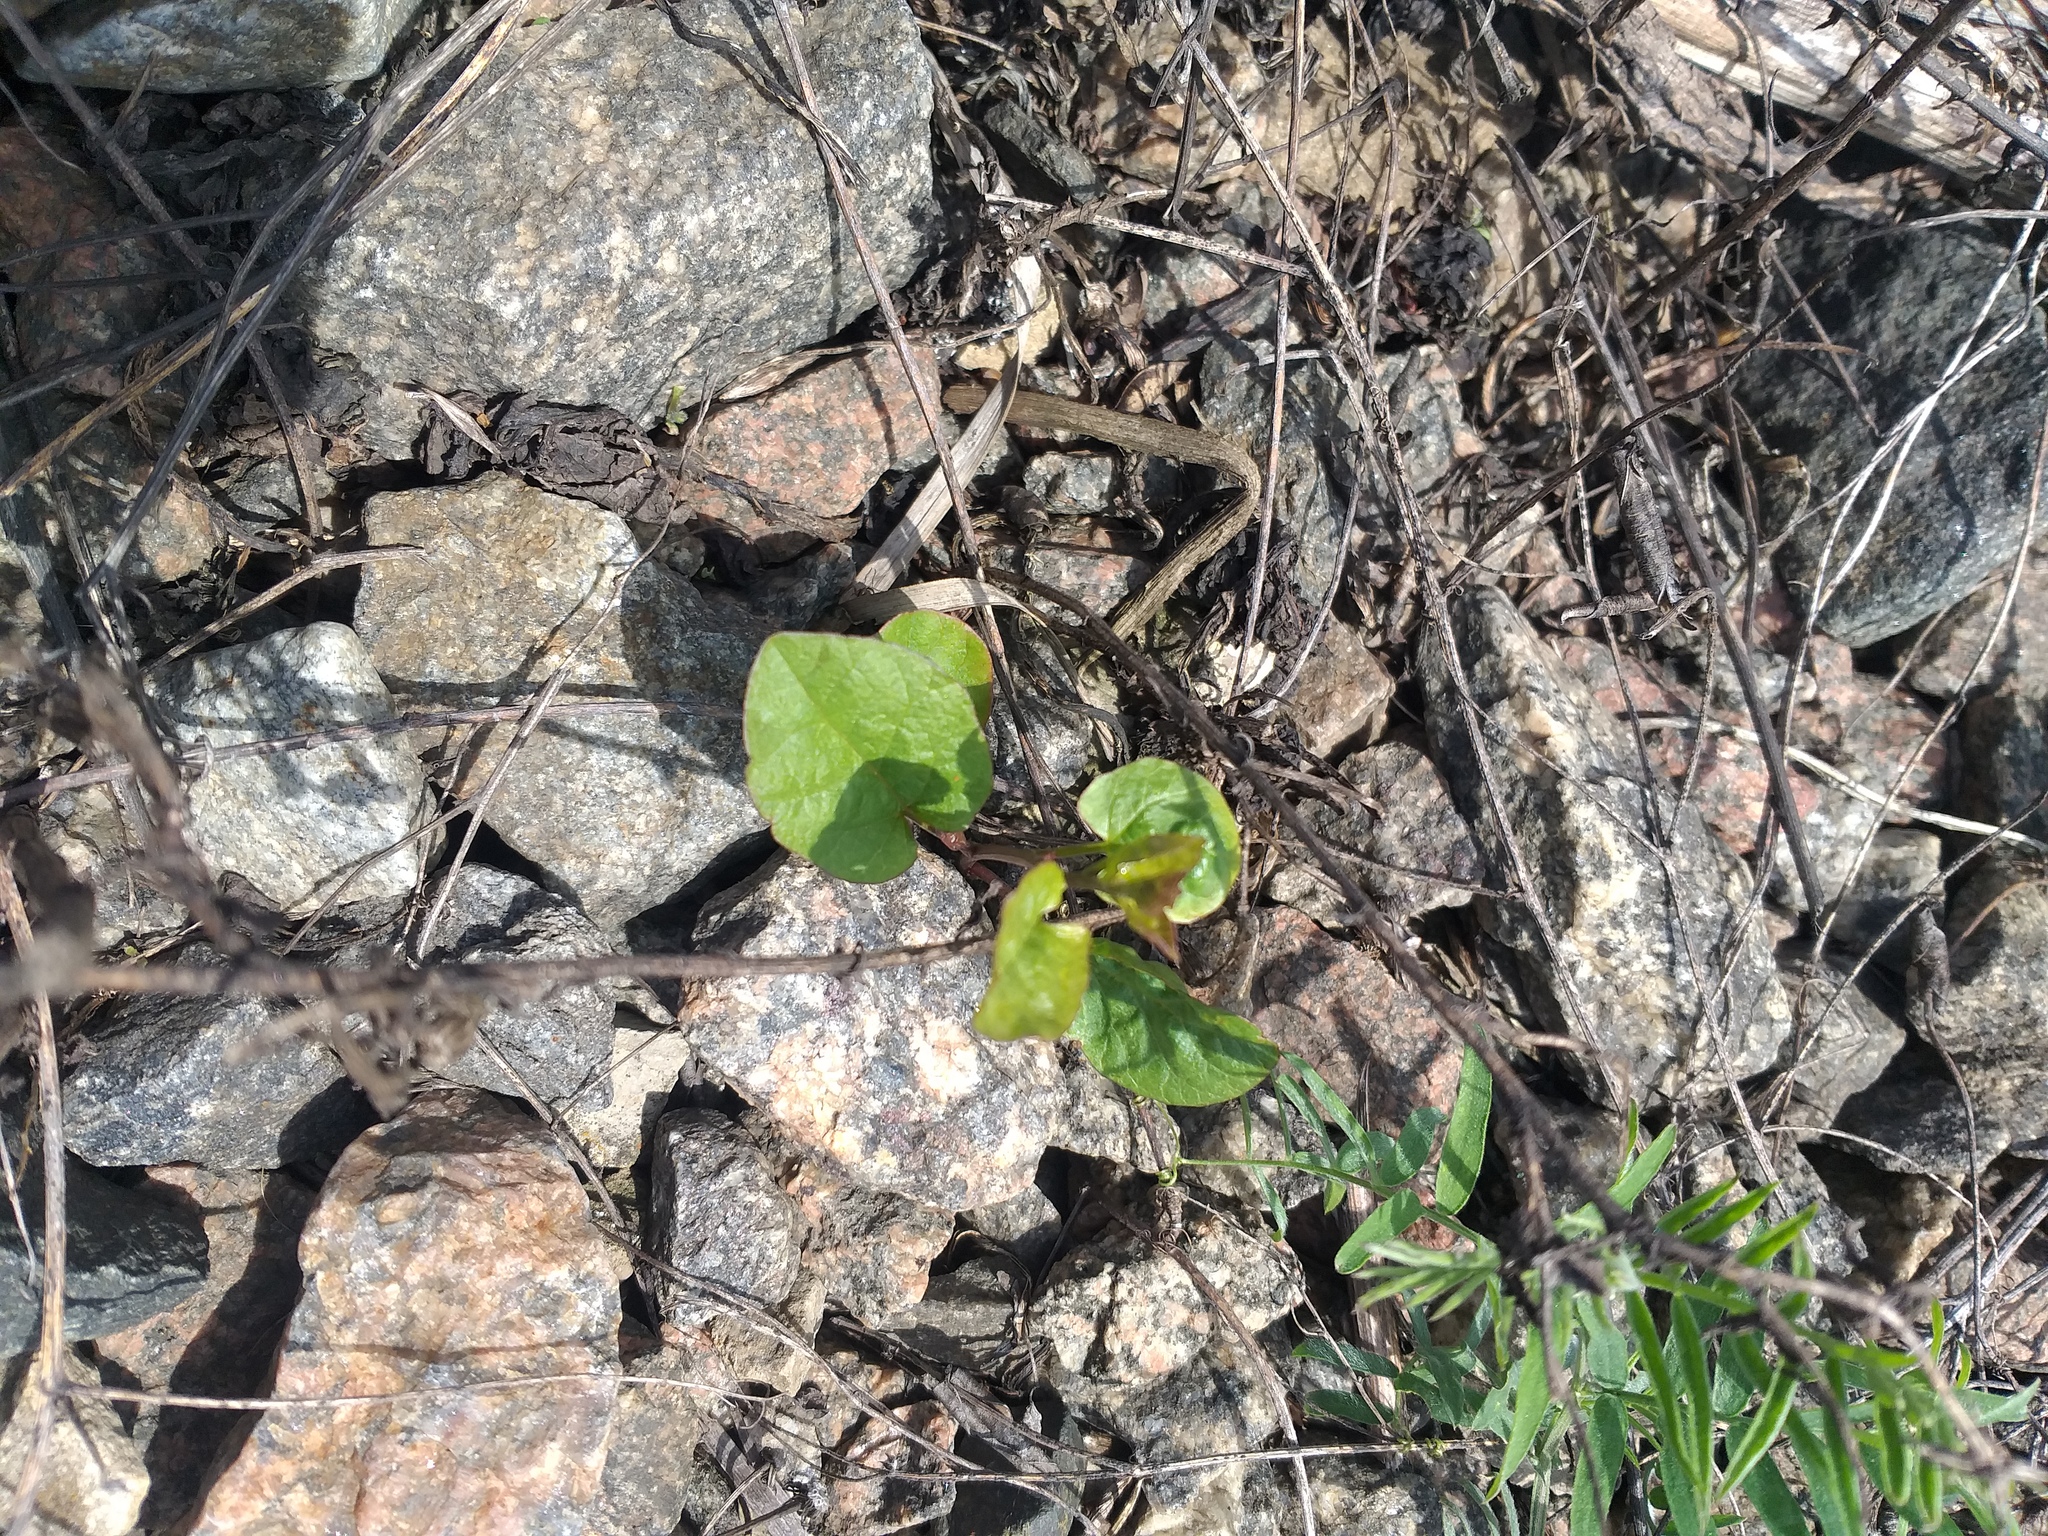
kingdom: Plantae
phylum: Tracheophyta
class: Magnoliopsida
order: Solanales
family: Convolvulaceae
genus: Convolvulus
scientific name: Convolvulus arvensis
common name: Field bindweed
